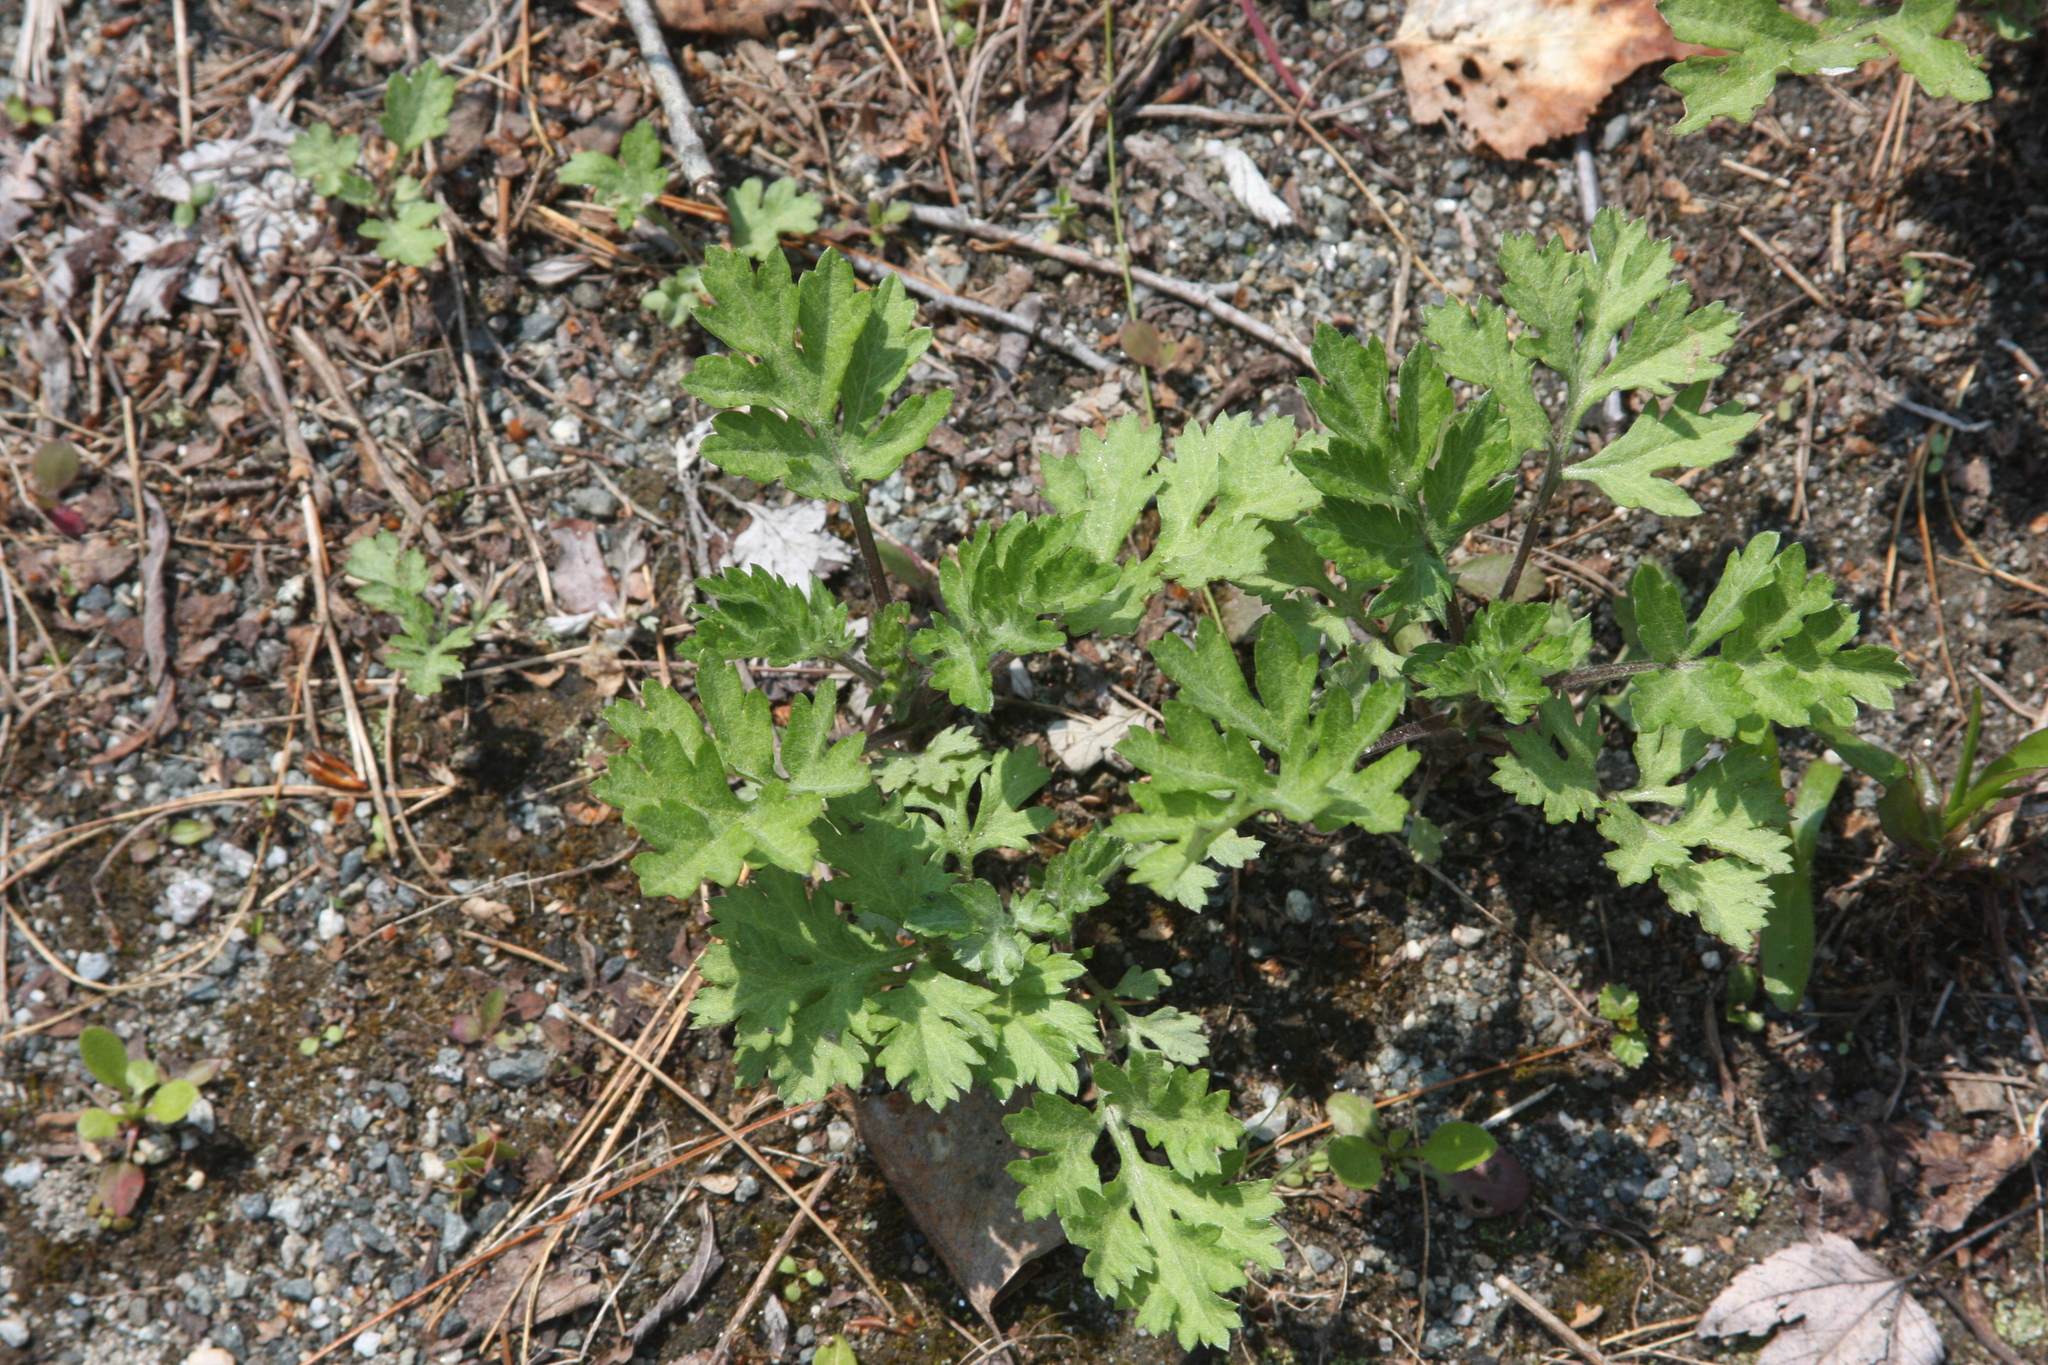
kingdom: Plantae
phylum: Tracheophyta
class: Magnoliopsida
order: Asterales
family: Asteraceae
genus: Artemisia
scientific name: Artemisia vulgaris
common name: Mugwort
